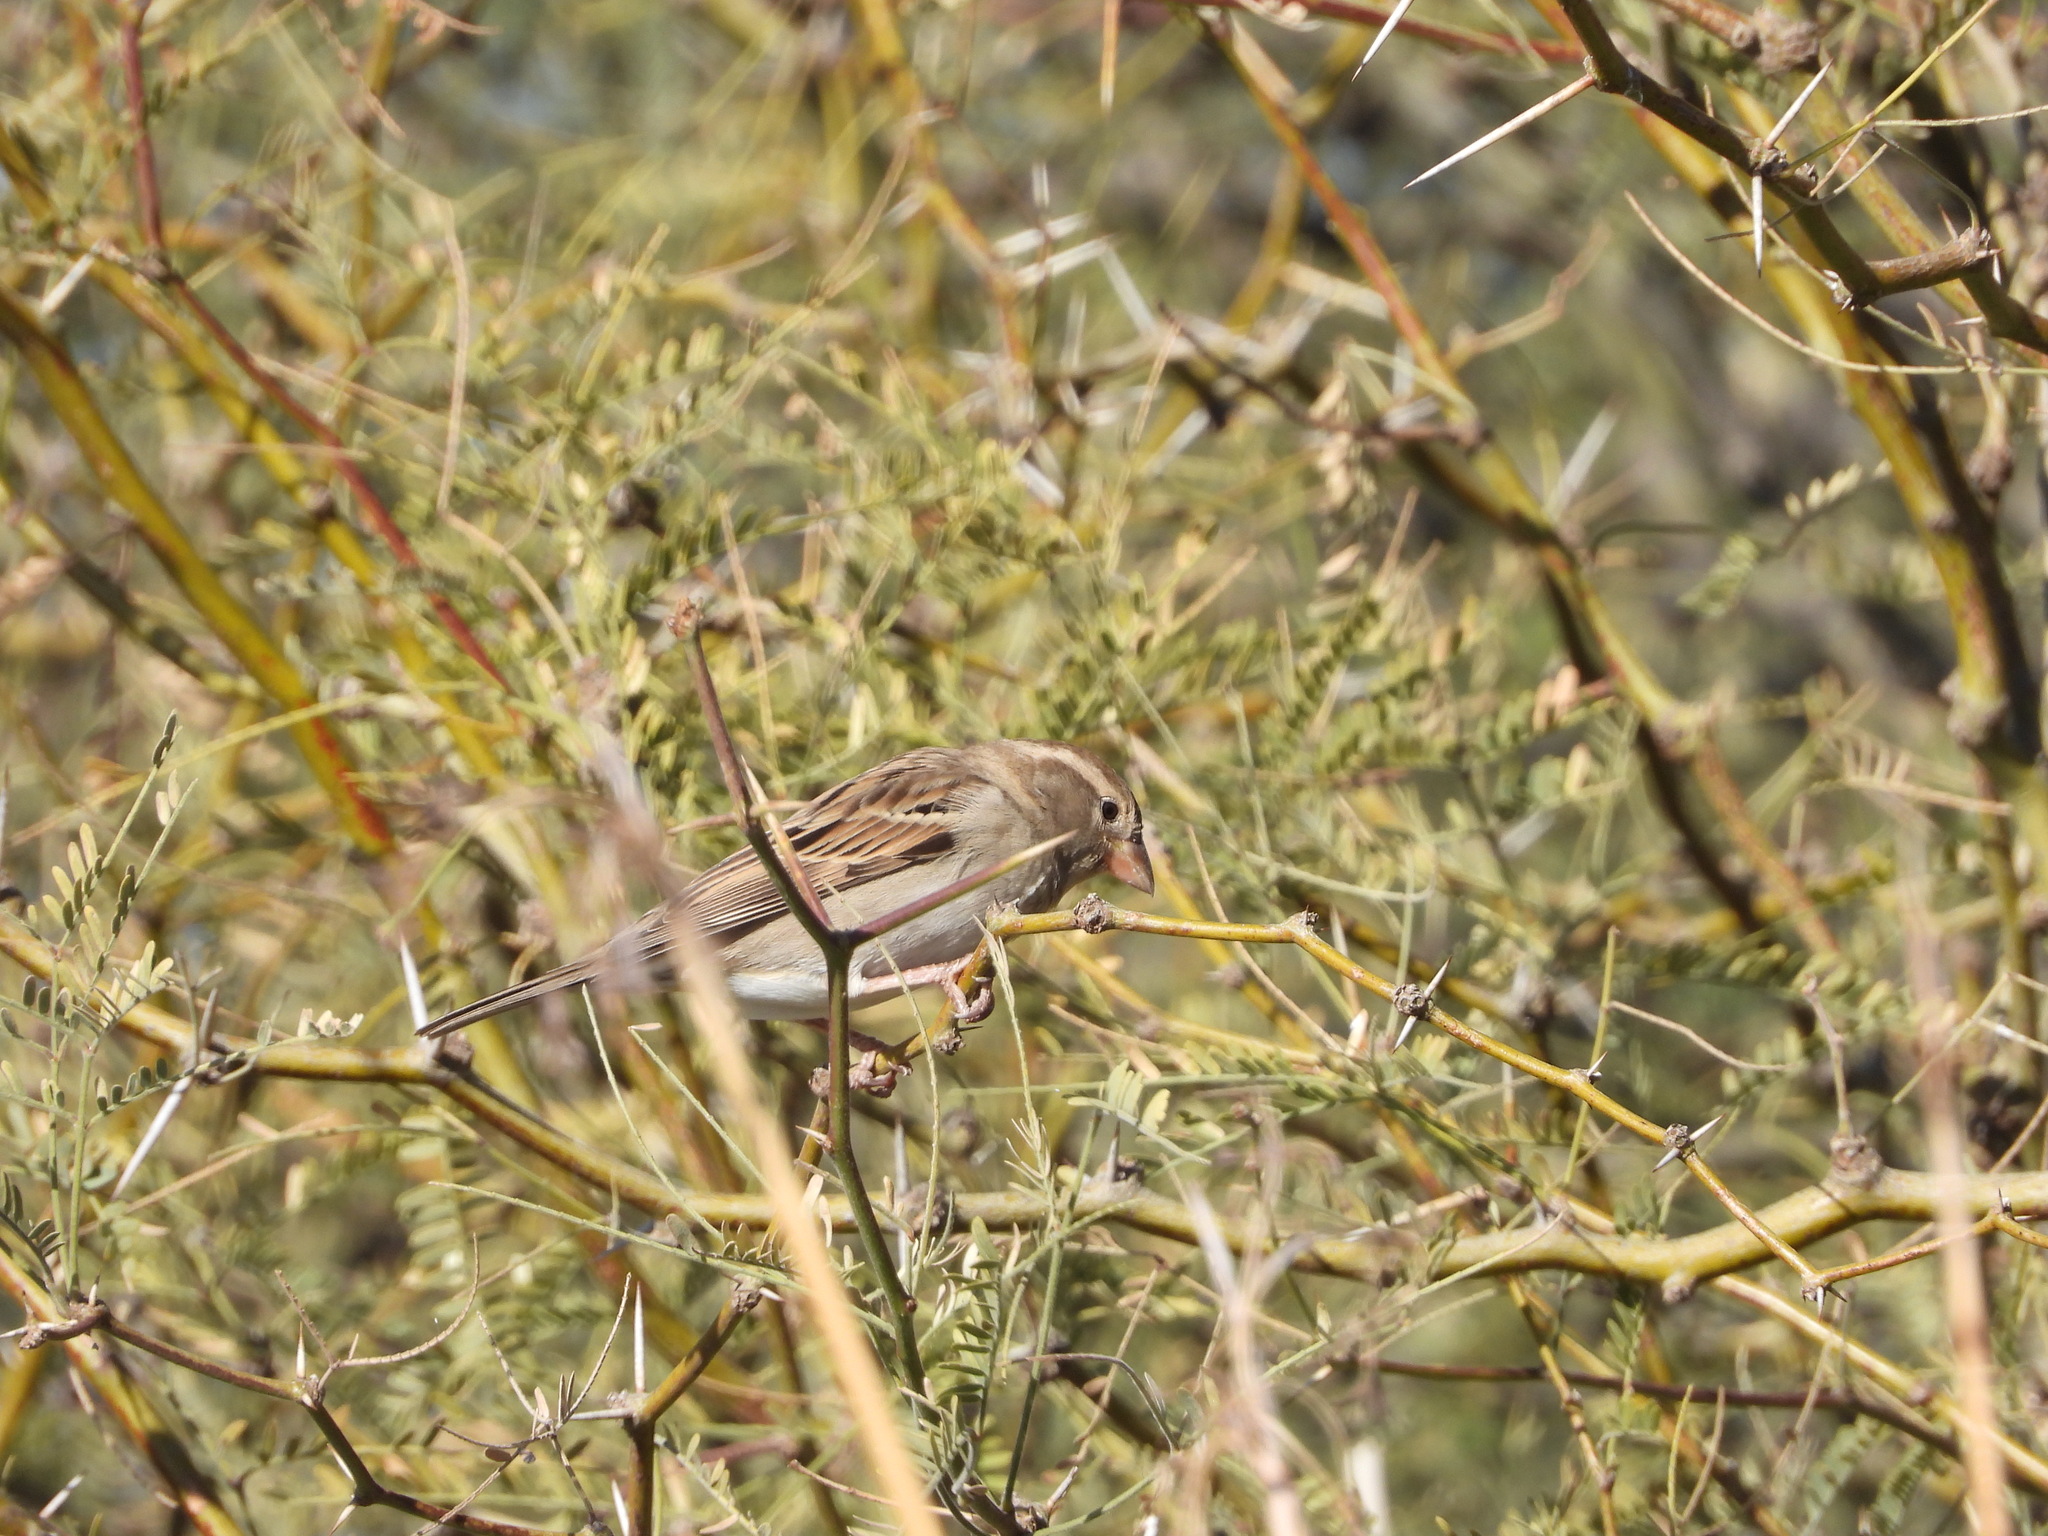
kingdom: Animalia
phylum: Chordata
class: Aves
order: Passeriformes
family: Passeridae
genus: Passer
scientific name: Passer domesticus
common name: House sparrow
